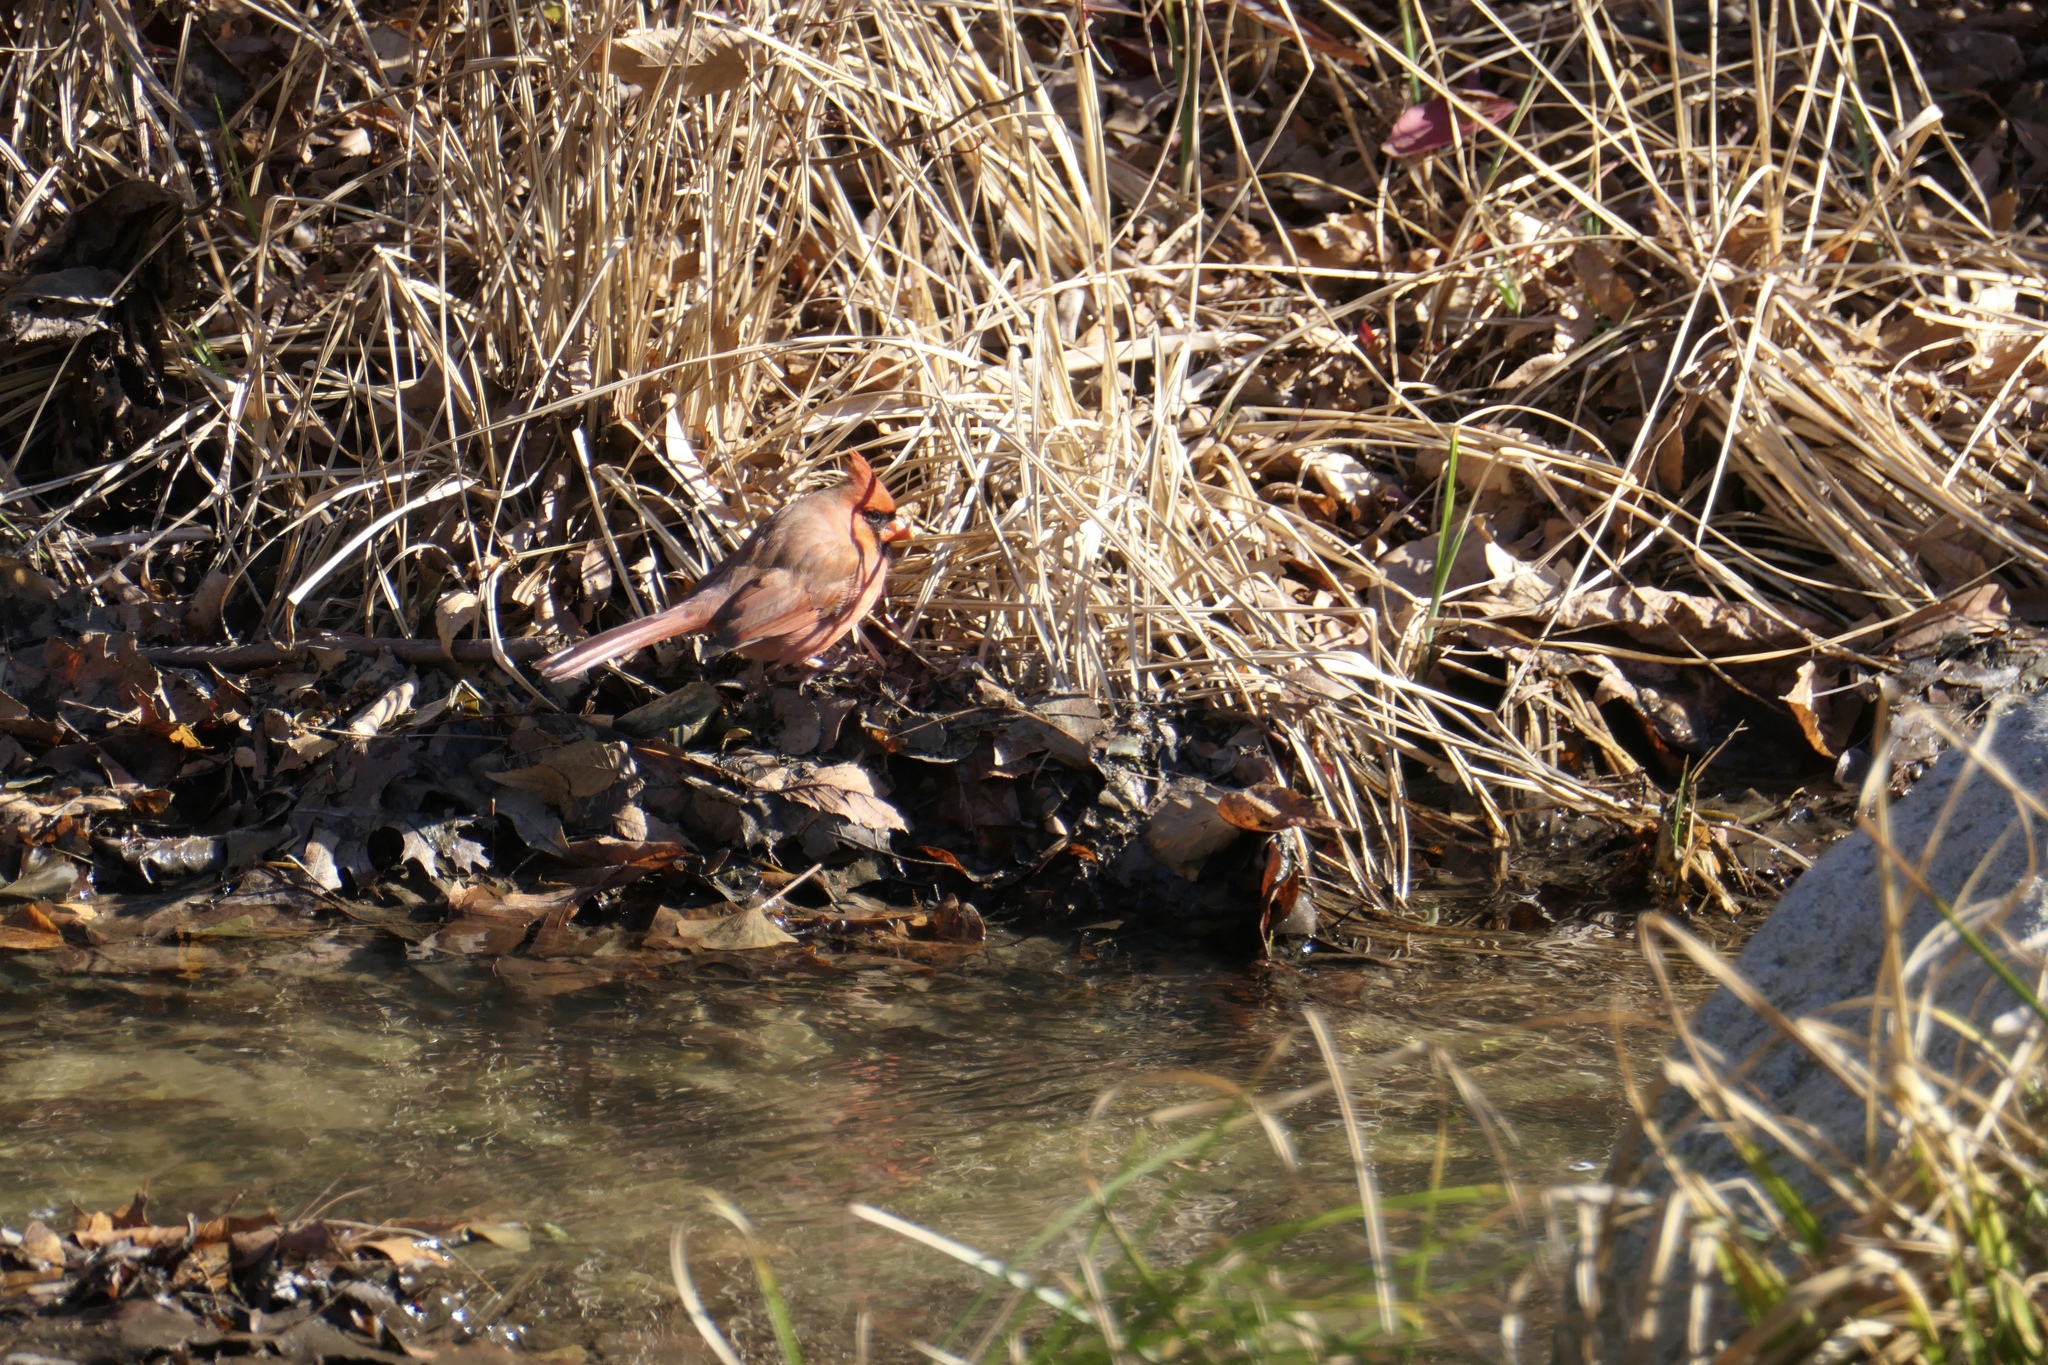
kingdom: Animalia
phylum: Chordata
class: Aves
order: Passeriformes
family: Cardinalidae
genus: Cardinalis
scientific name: Cardinalis cardinalis
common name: Northern cardinal
